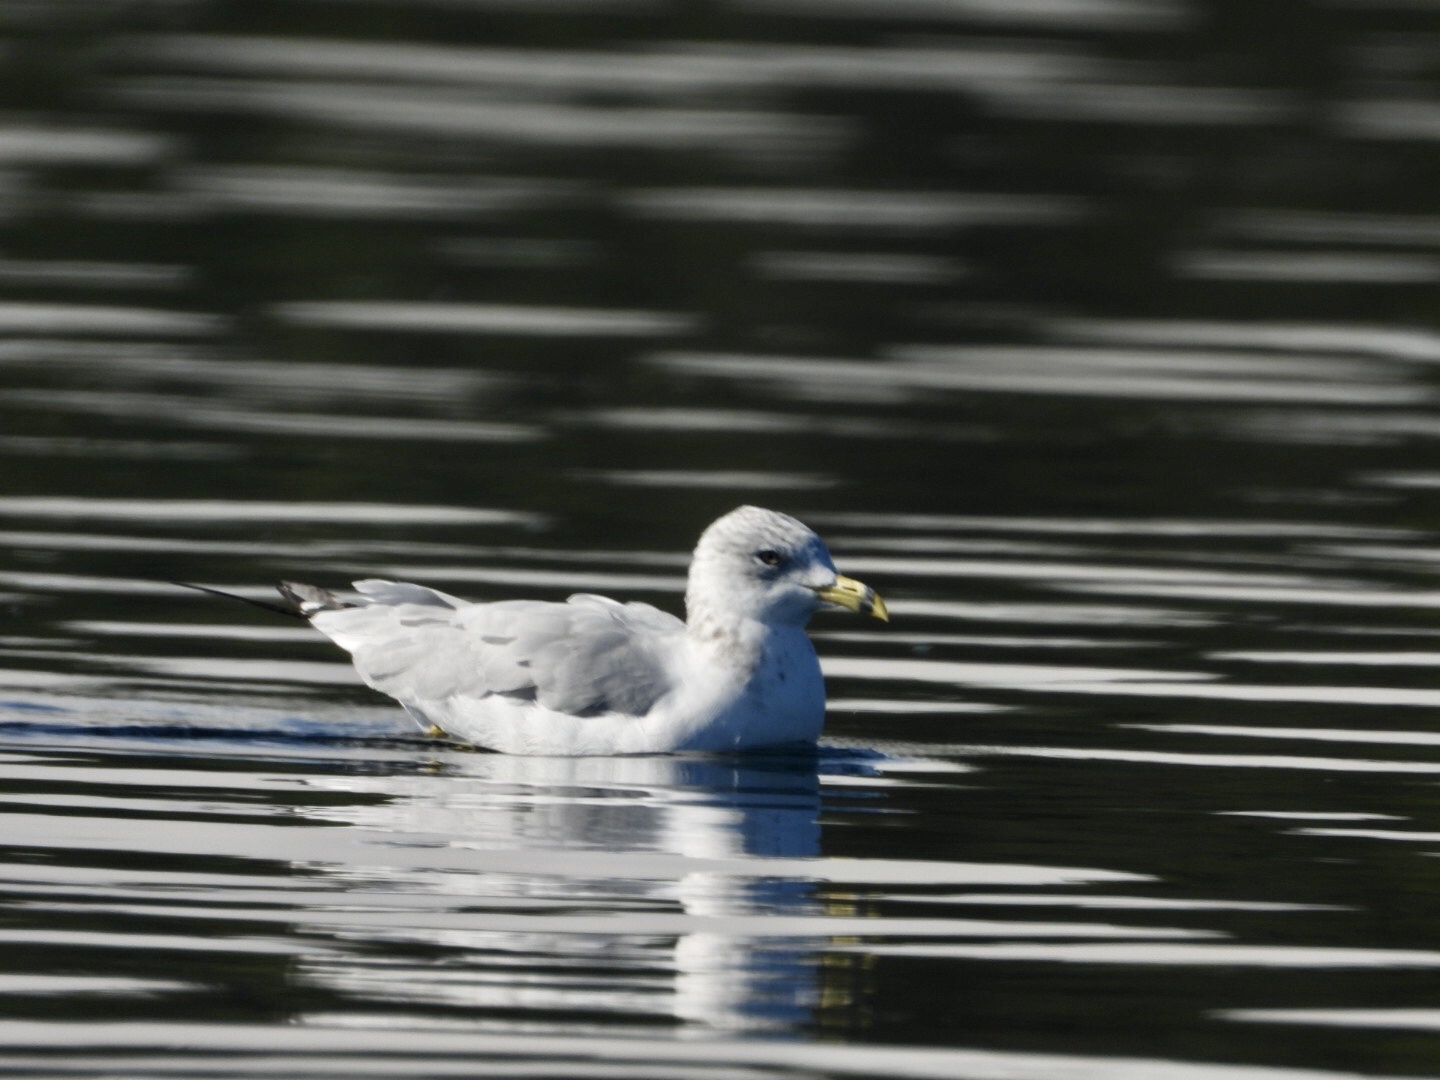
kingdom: Animalia
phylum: Chordata
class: Aves
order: Charadriiformes
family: Laridae
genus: Larus
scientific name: Larus delawarensis
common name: Ring-billed gull
